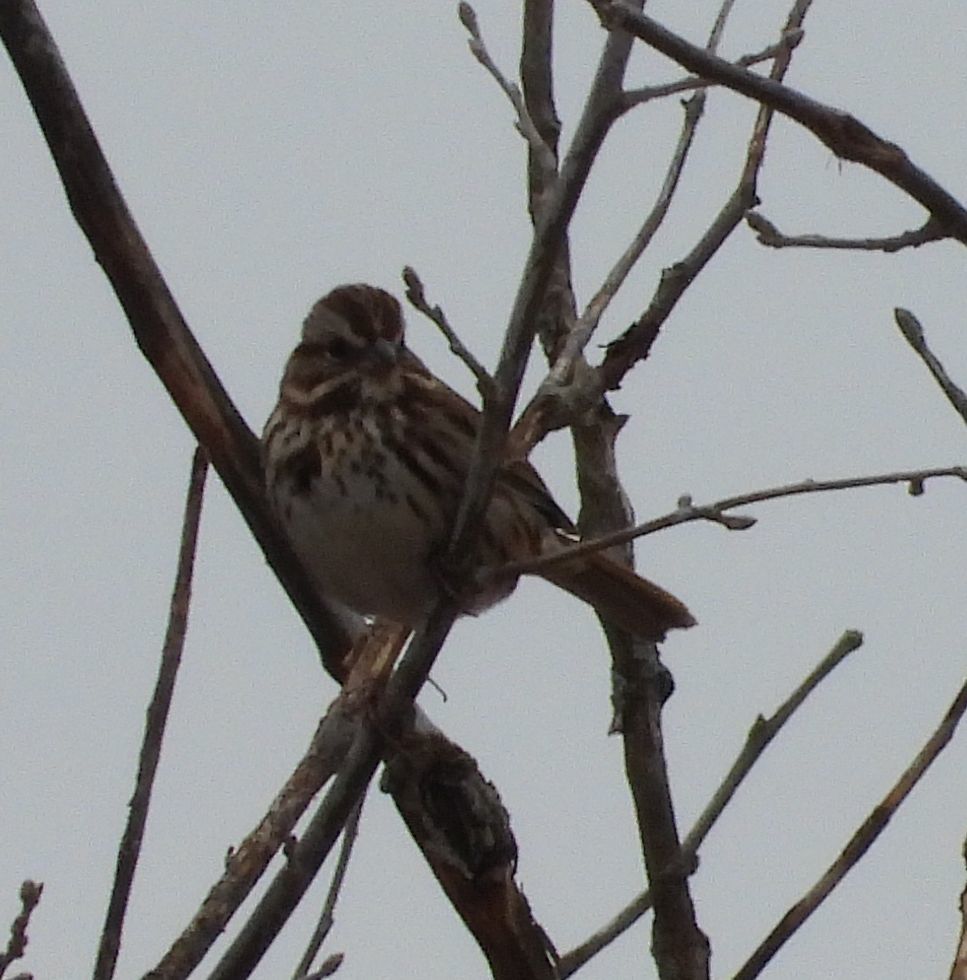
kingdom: Animalia
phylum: Chordata
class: Aves
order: Passeriformes
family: Passerellidae
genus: Melospiza
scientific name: Melospiza melodia
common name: Song sparrow
